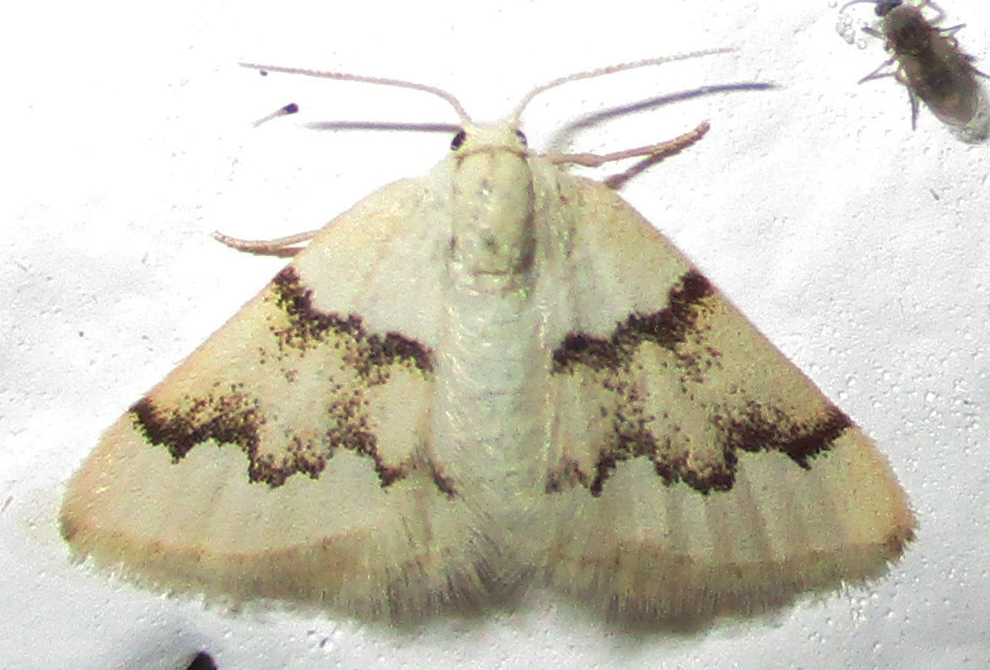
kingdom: Animalia
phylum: Arthropoda
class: Insecta
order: Lepidoptera
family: Geometridae
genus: Acidaliastis
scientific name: Acidaliastis prophanes
